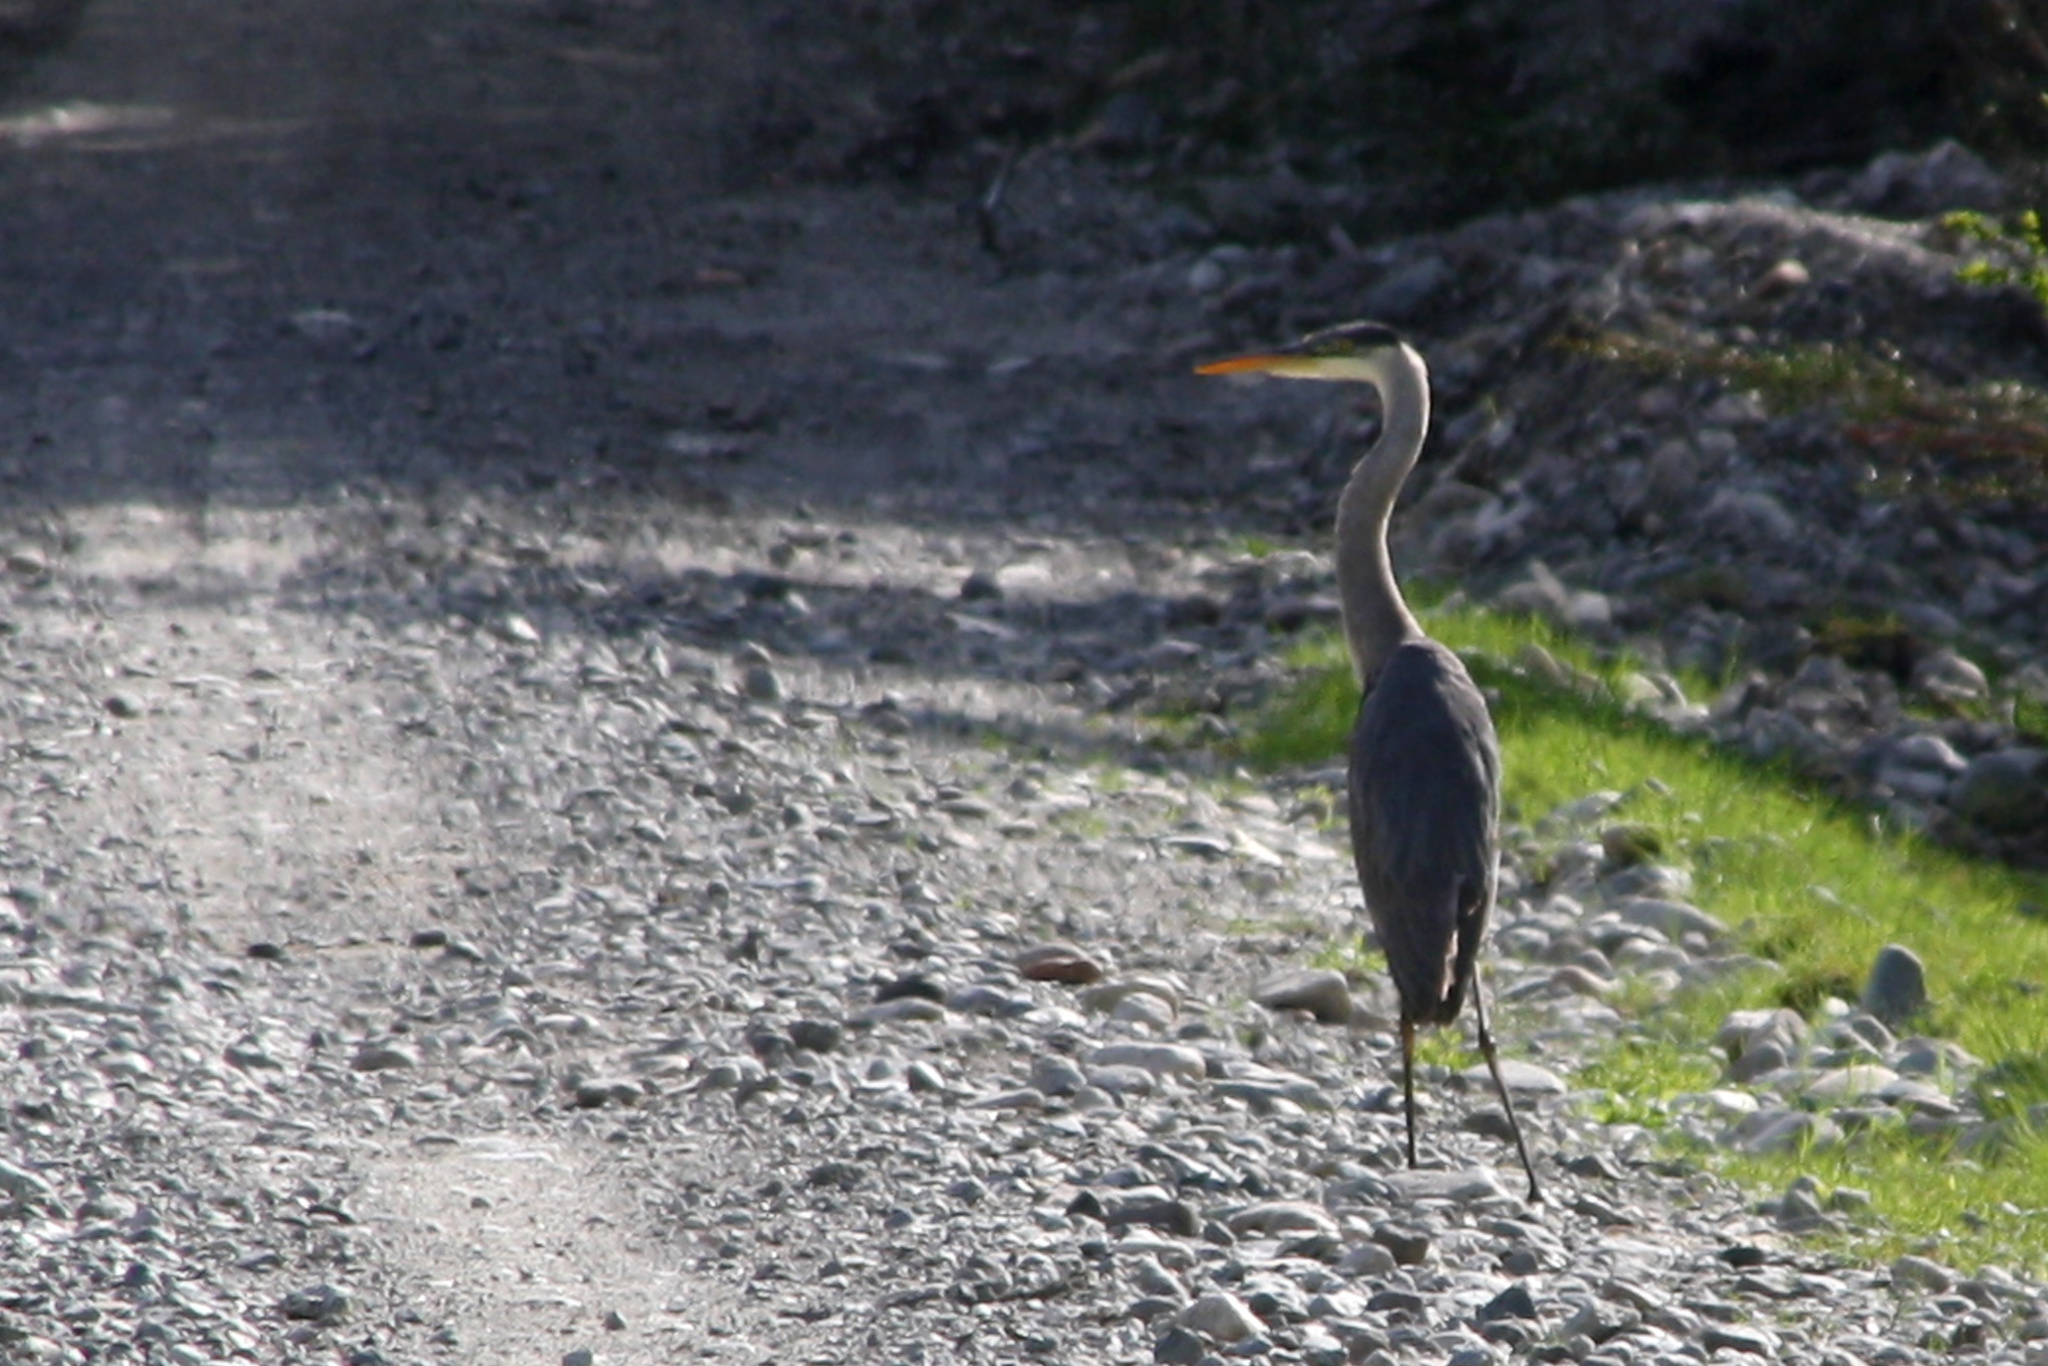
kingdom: Animalia
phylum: Chordata
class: Aves
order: Pelecaniformes
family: Ardeidae
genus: Ardea
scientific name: Ardea cocoi
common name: Cocoi heron
